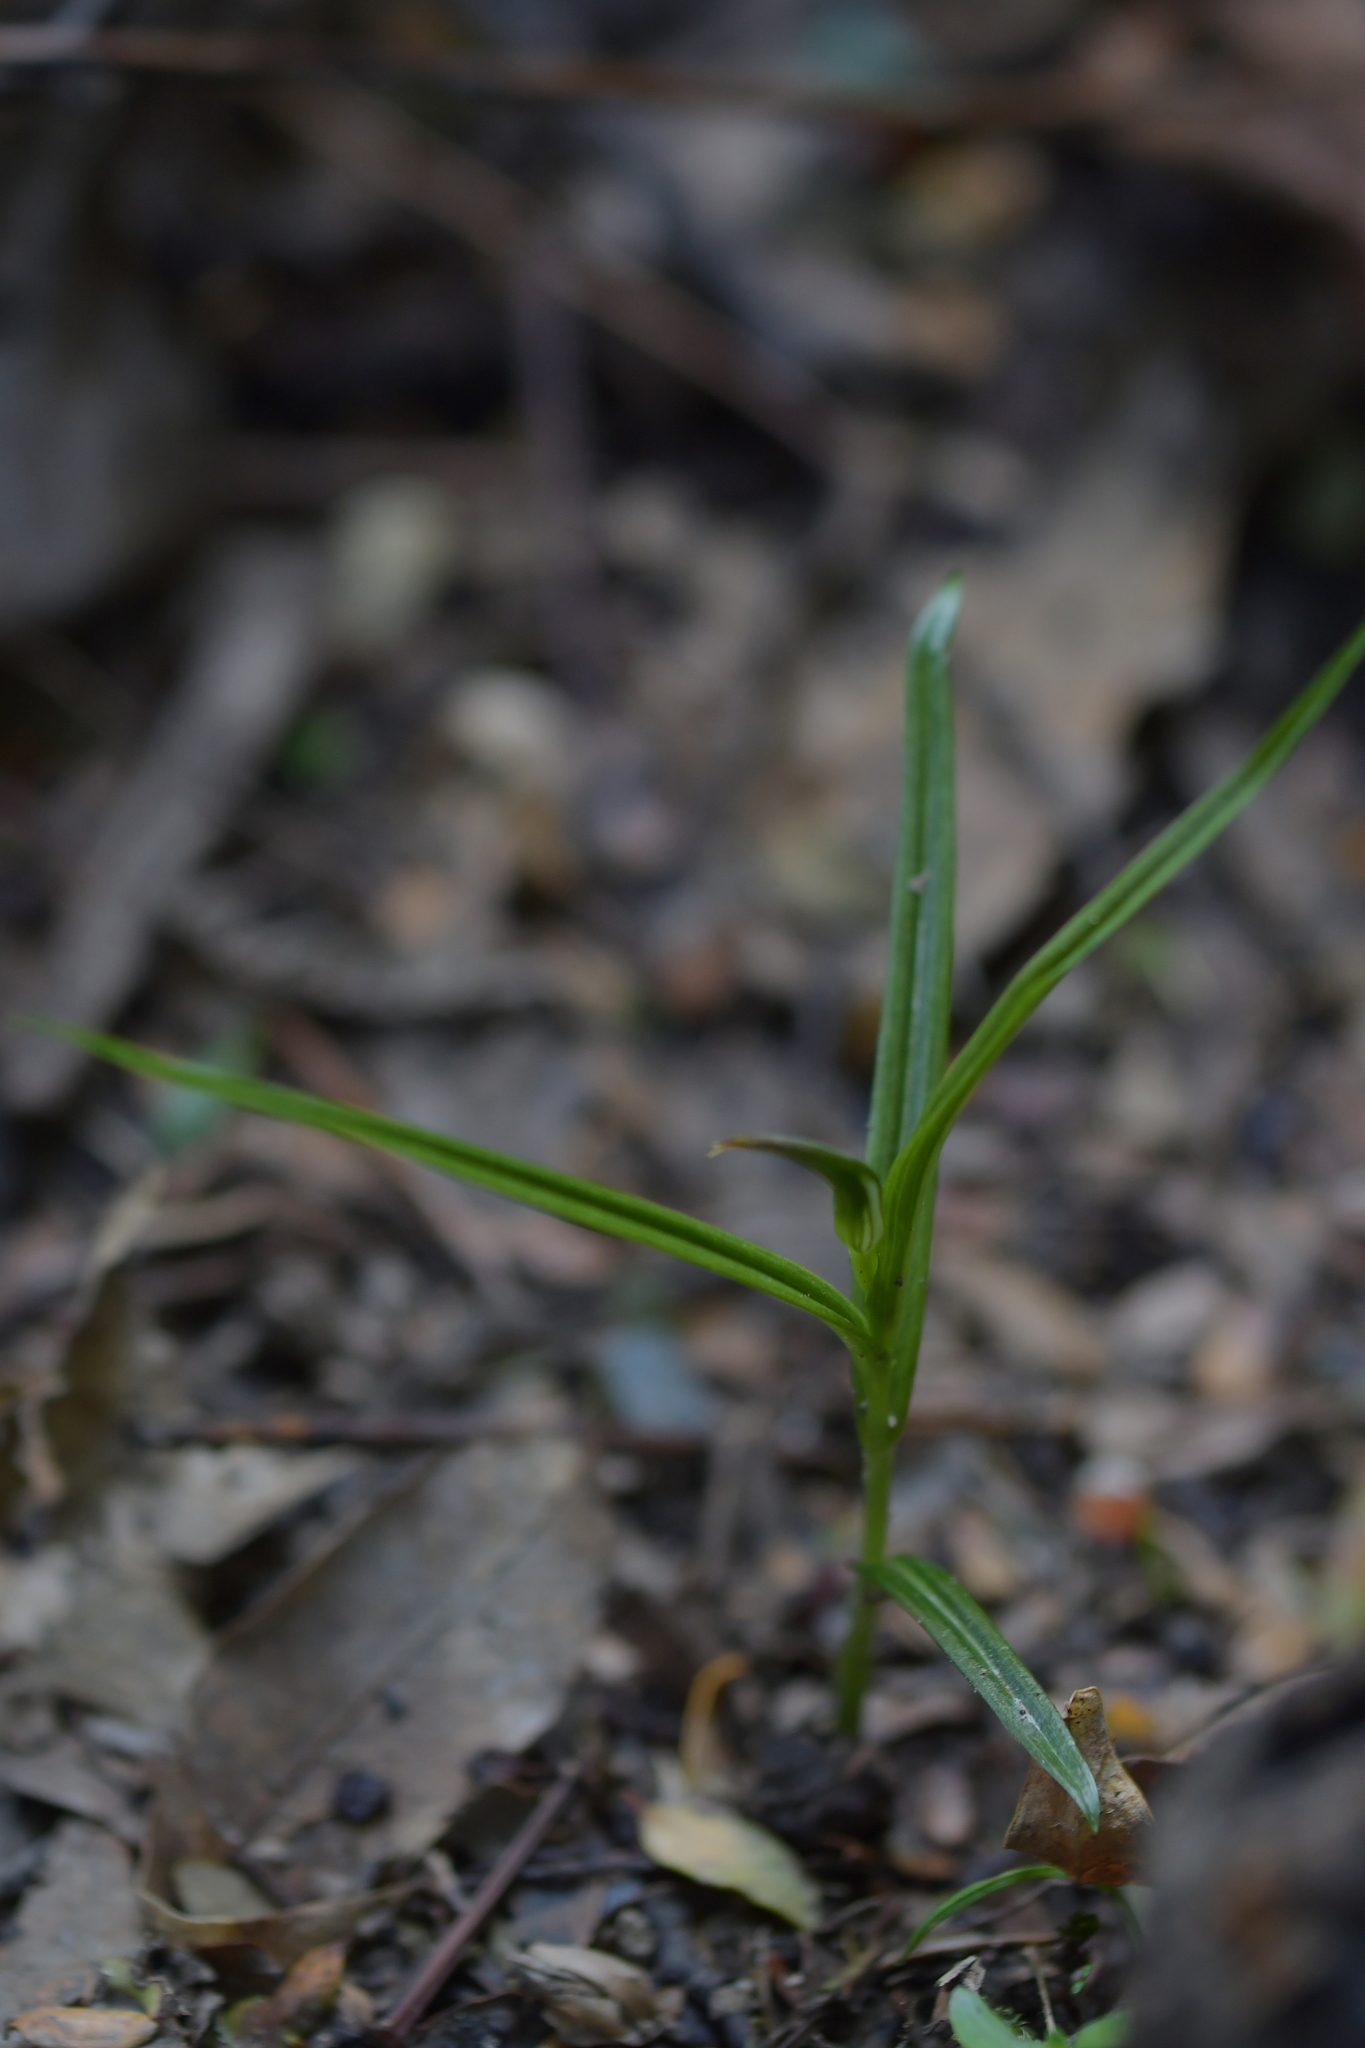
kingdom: Plantae
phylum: Tracheophyta
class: Liliopsida
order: Asparagales
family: Orchidaceae
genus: Pterostylis
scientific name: Pterostylis graminea
